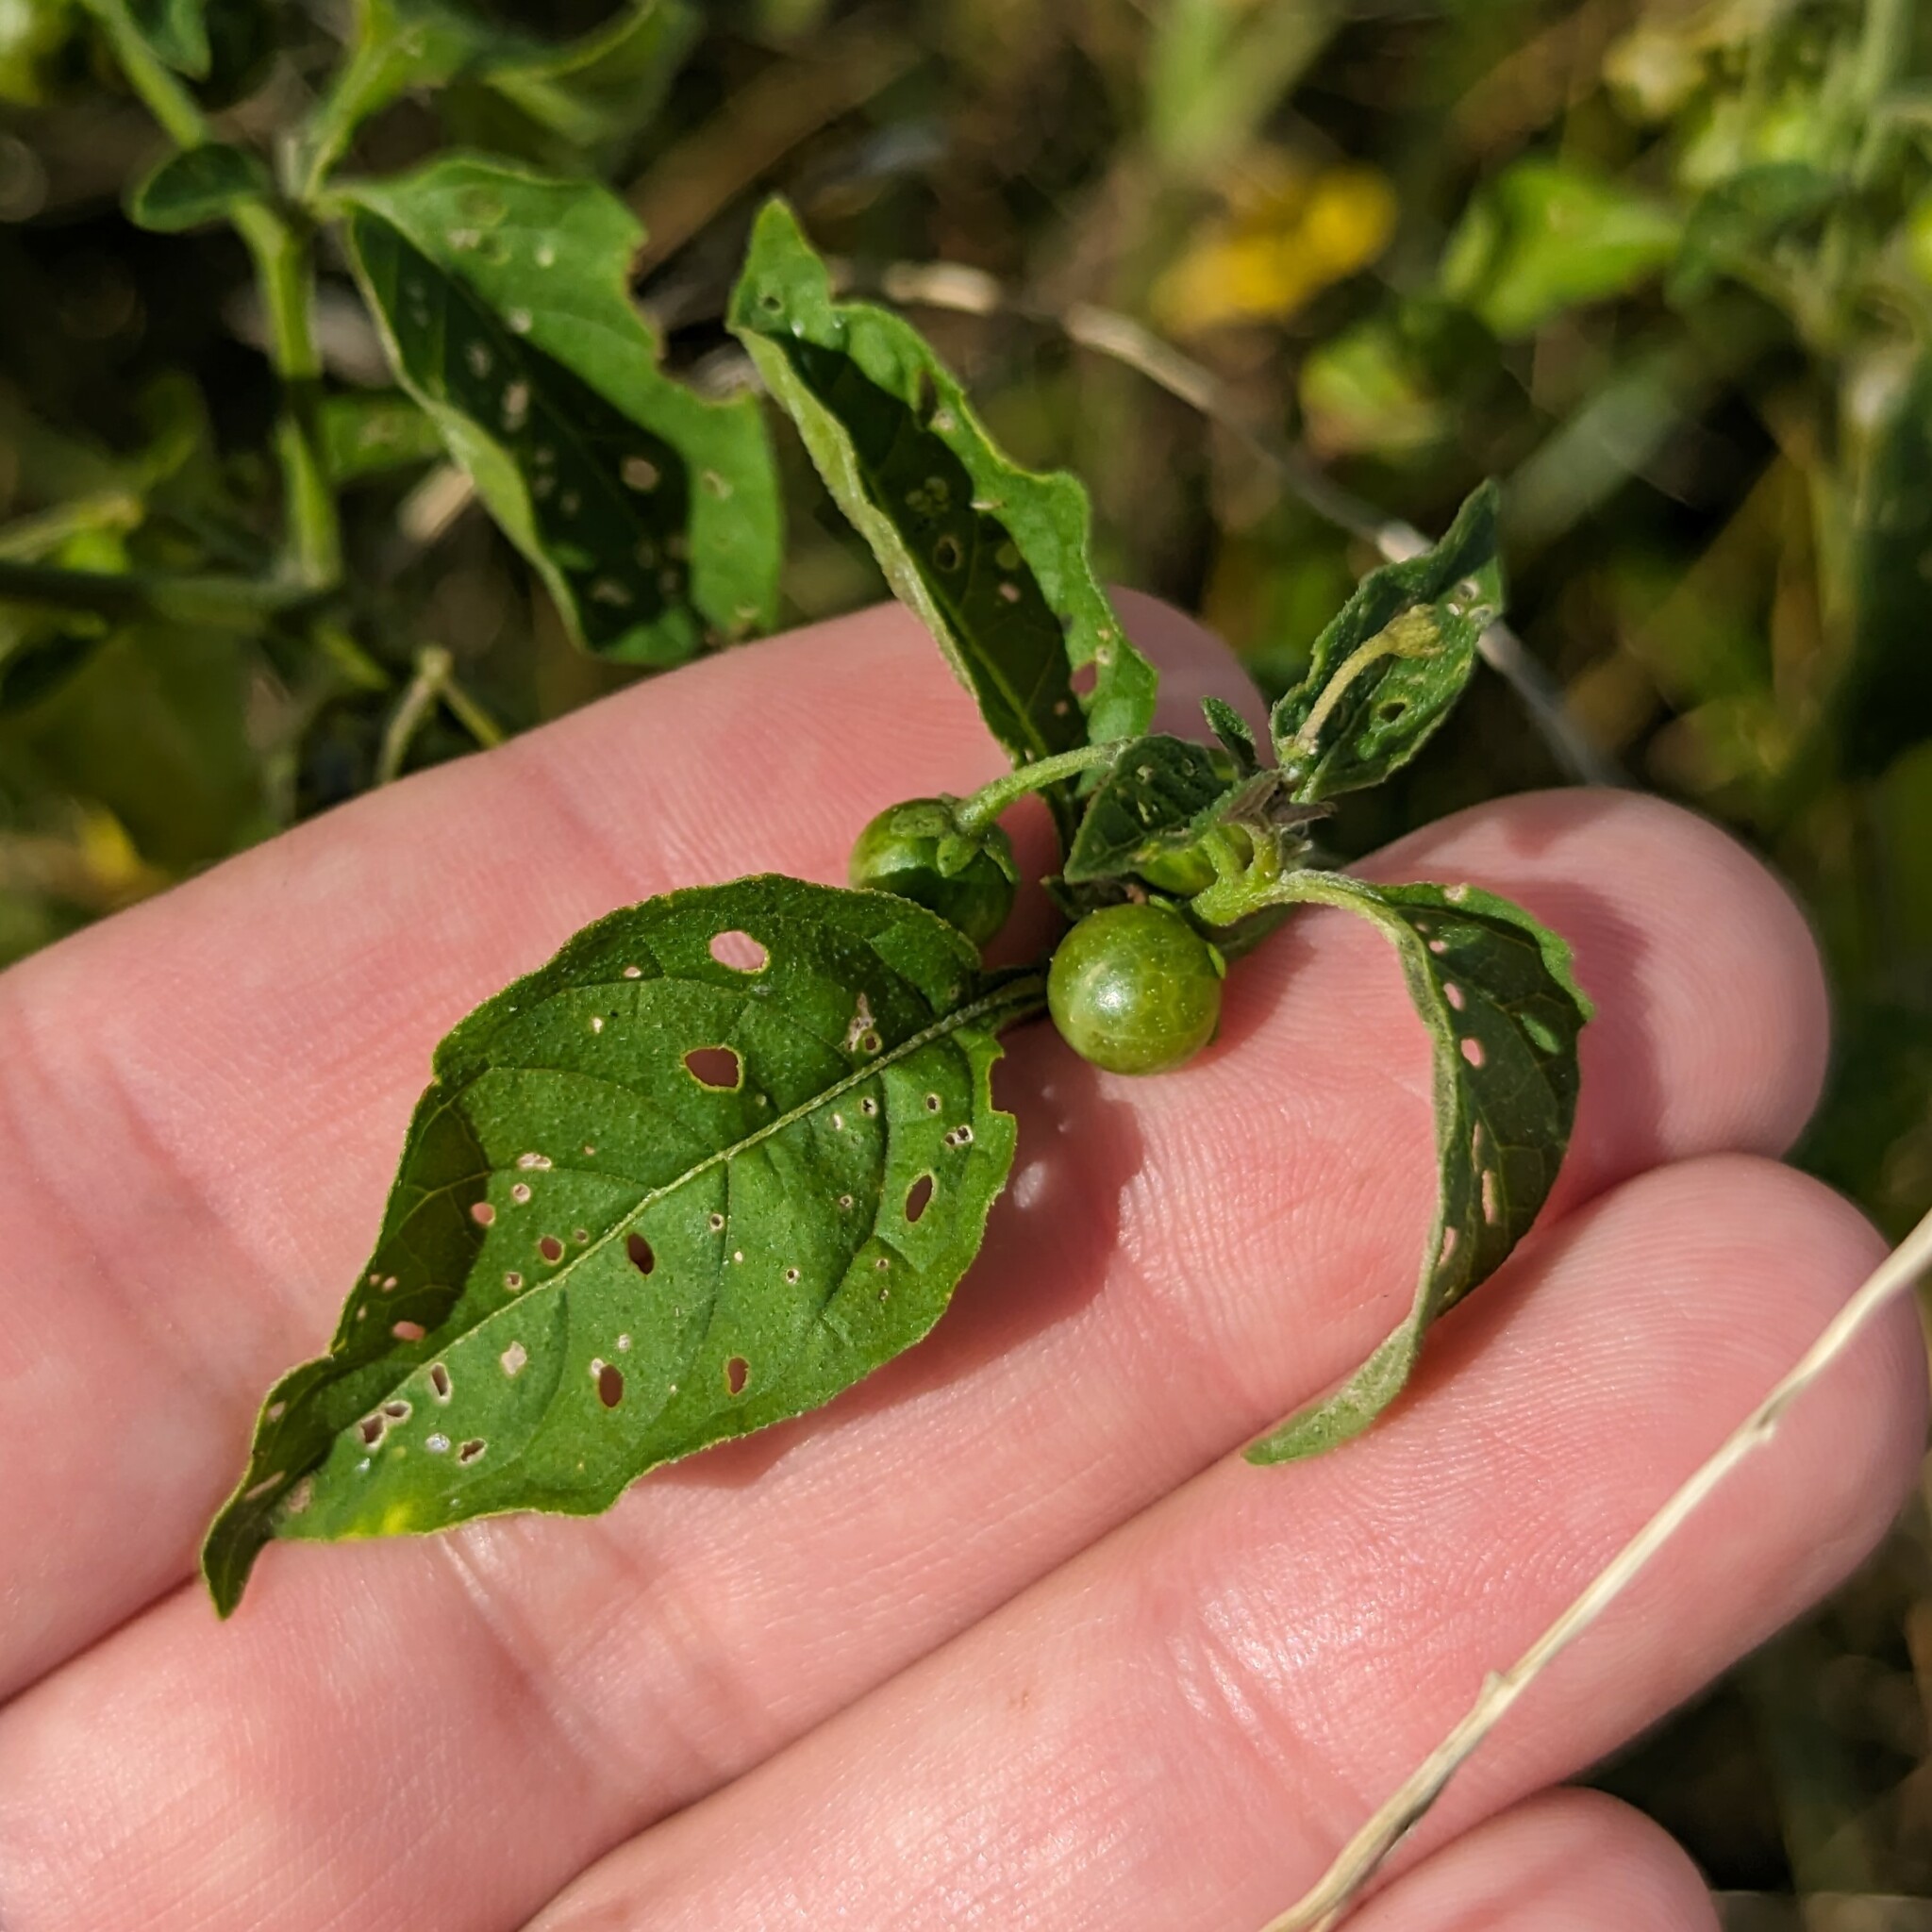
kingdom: Plantae
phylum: Tracheophyta
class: Magnoliopsida
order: Solanales
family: Solanaceae
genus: Solanum
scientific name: Solanum emulans
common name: Eastern black nightshade
